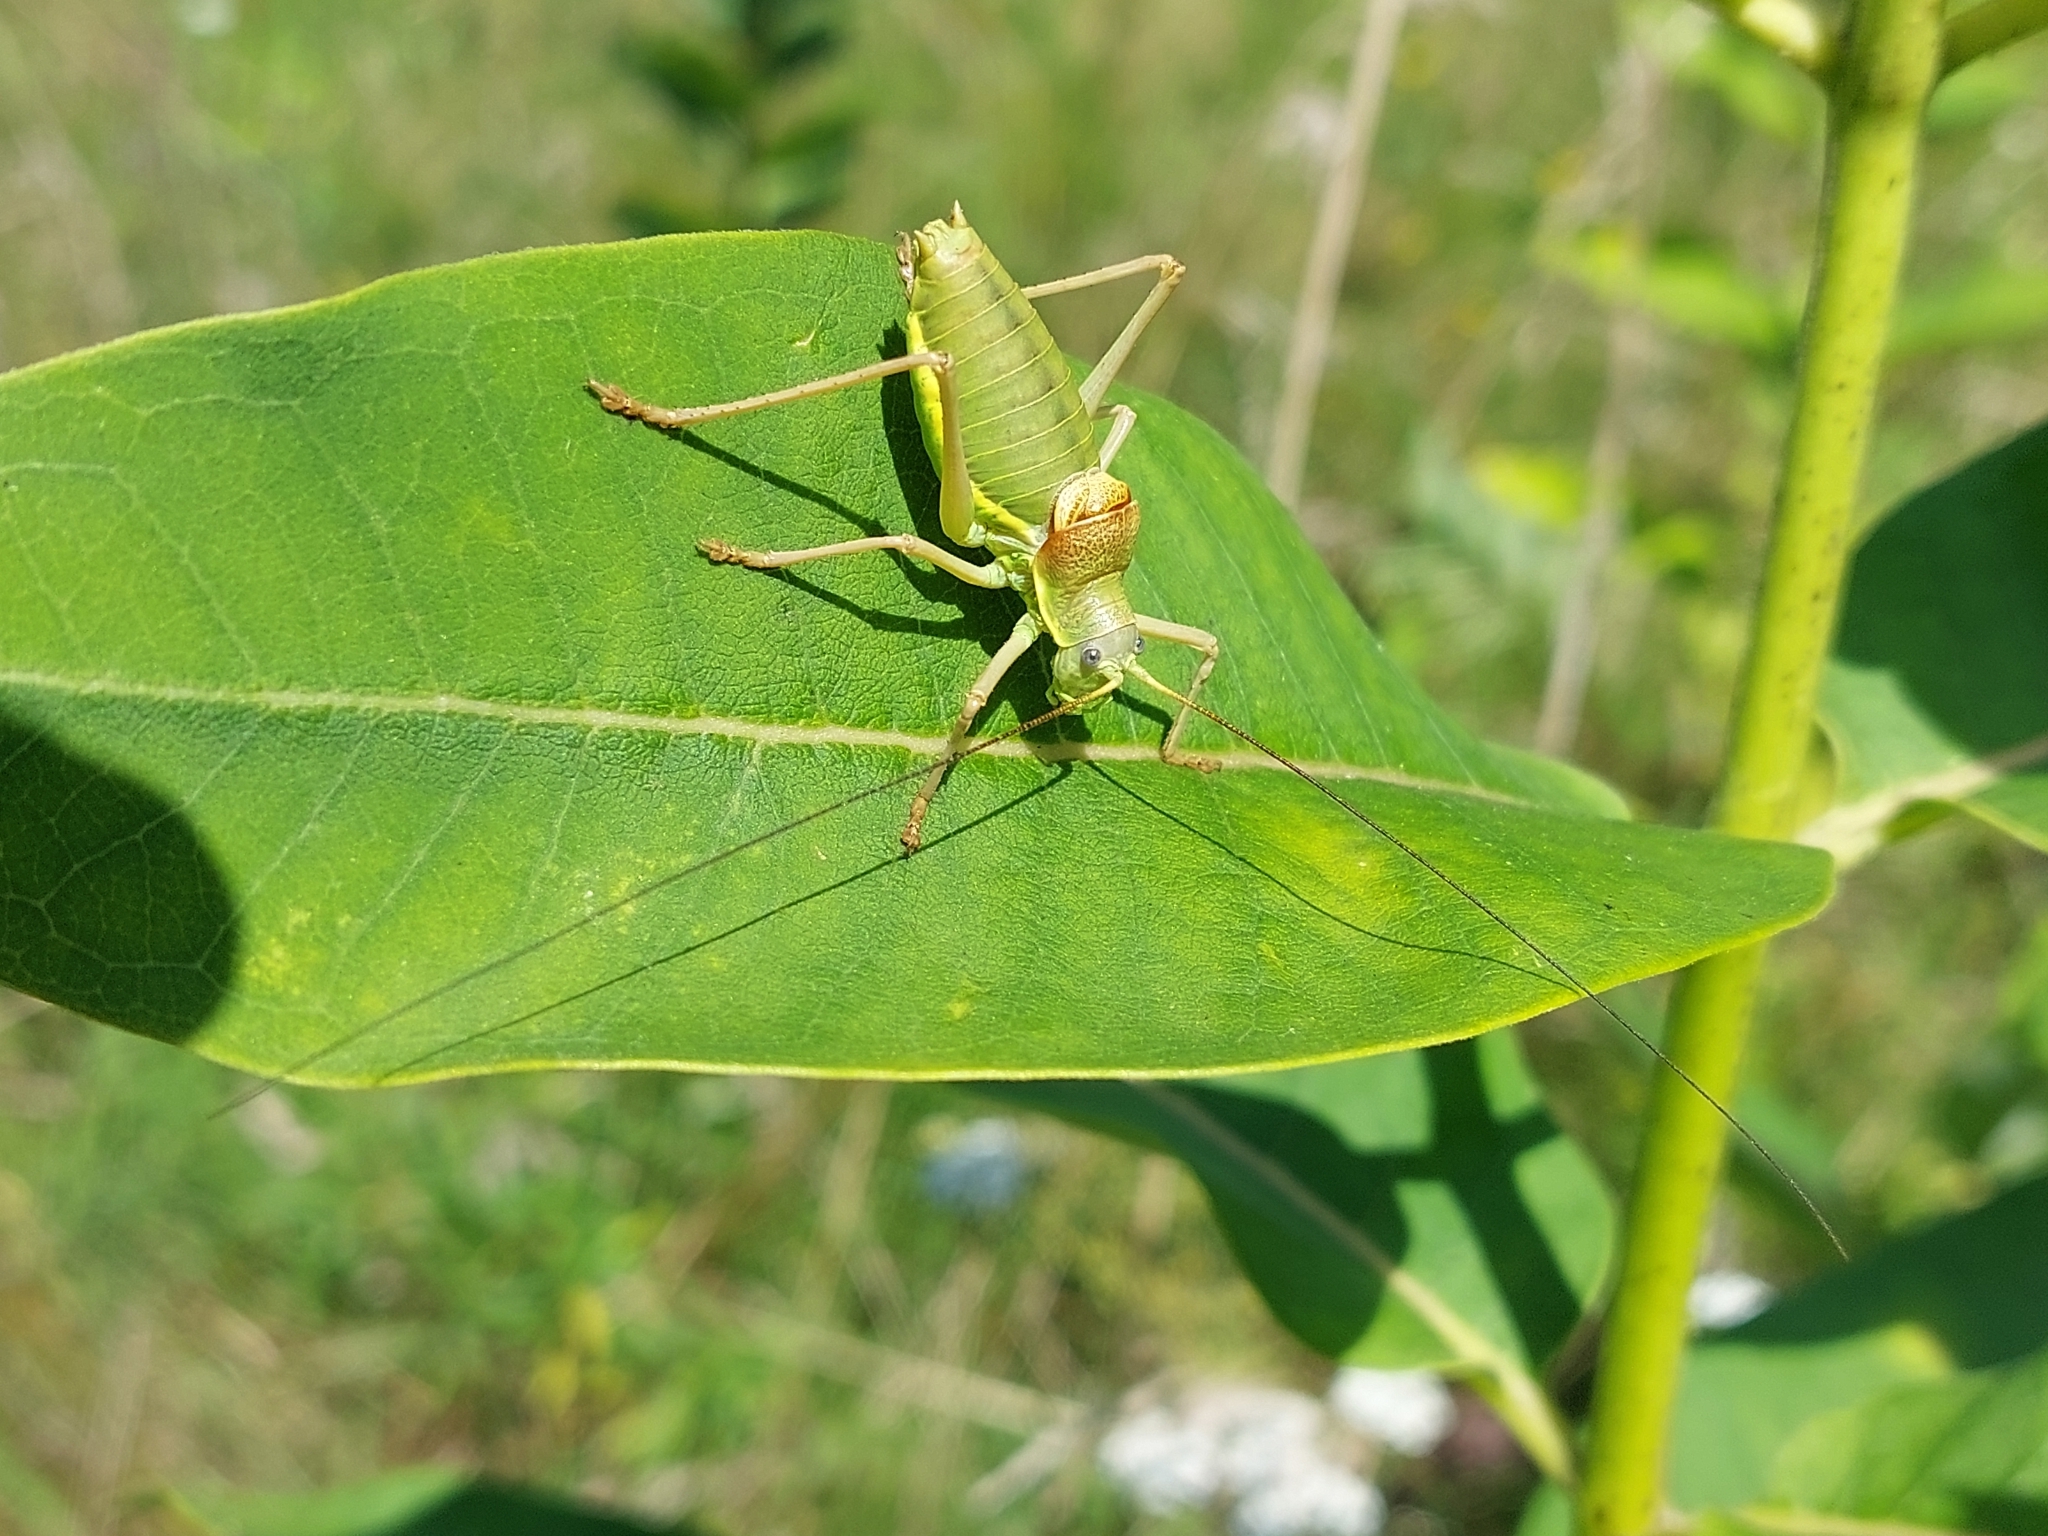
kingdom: Animalia
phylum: Arthropoda
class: Insecta
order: Orthoptera
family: Tettigoniidae
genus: Ephippiger
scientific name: Ephippiger ephippiger
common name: Eastern saddle bush-cricket
